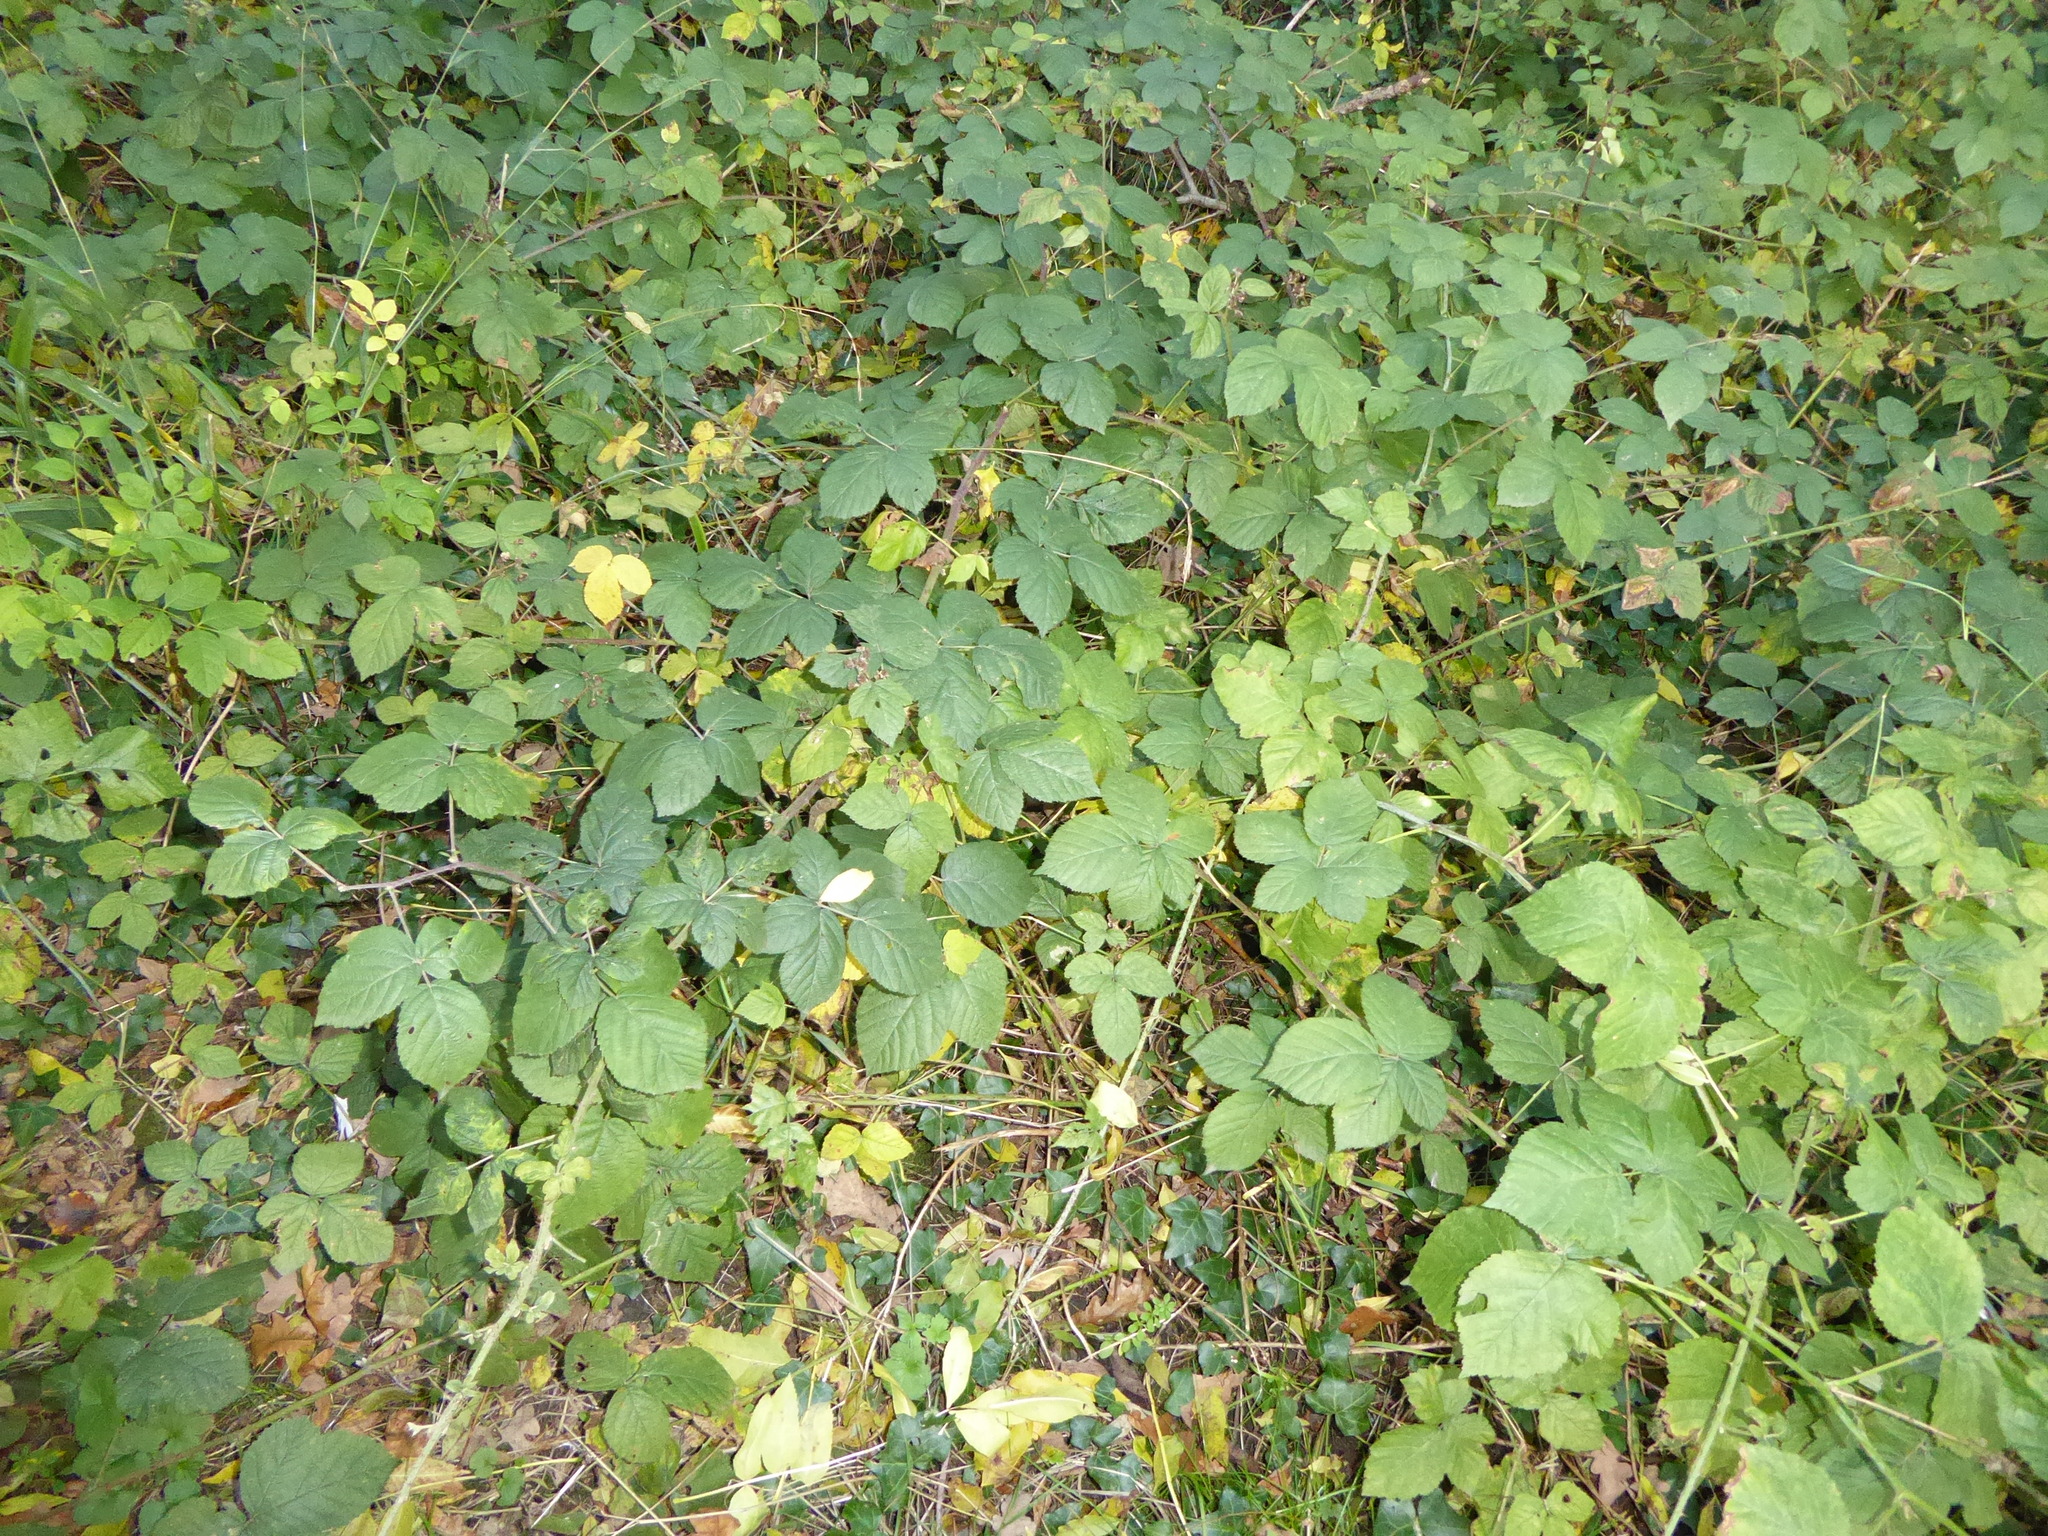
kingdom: Plantae
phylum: Tracheophyta
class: Magnoliopsida
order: Rosales
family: Rosaceae
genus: Rubus
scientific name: Rubus
